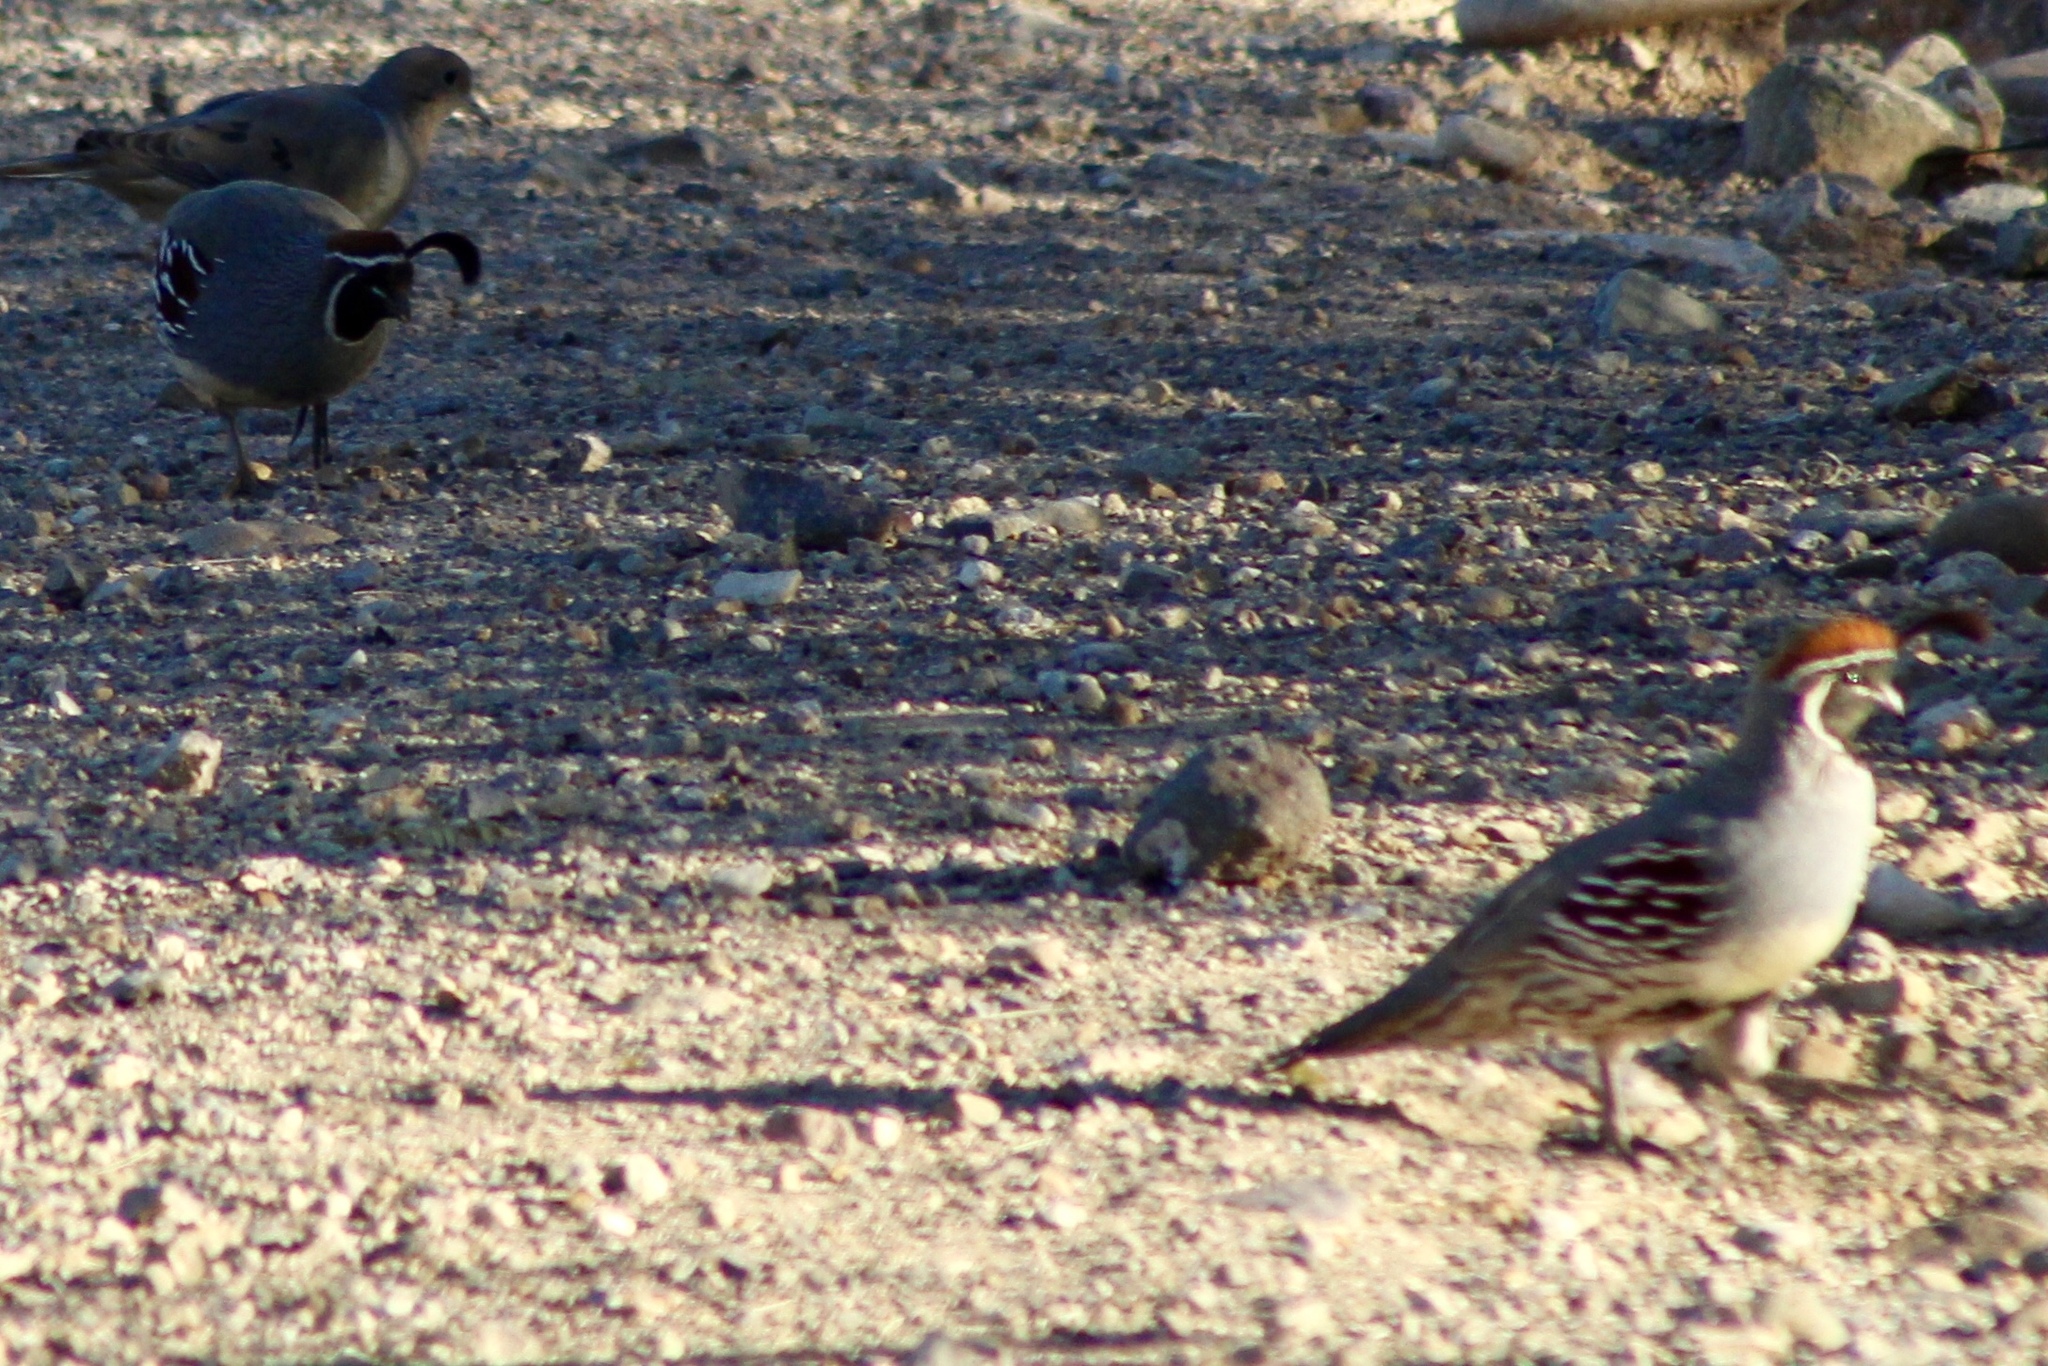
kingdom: Animalia
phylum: Chordata
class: Aves
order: Galliformes
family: Odontophoridae
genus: Callipepla
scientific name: Callipepla gambelii
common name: Gambel's quail
